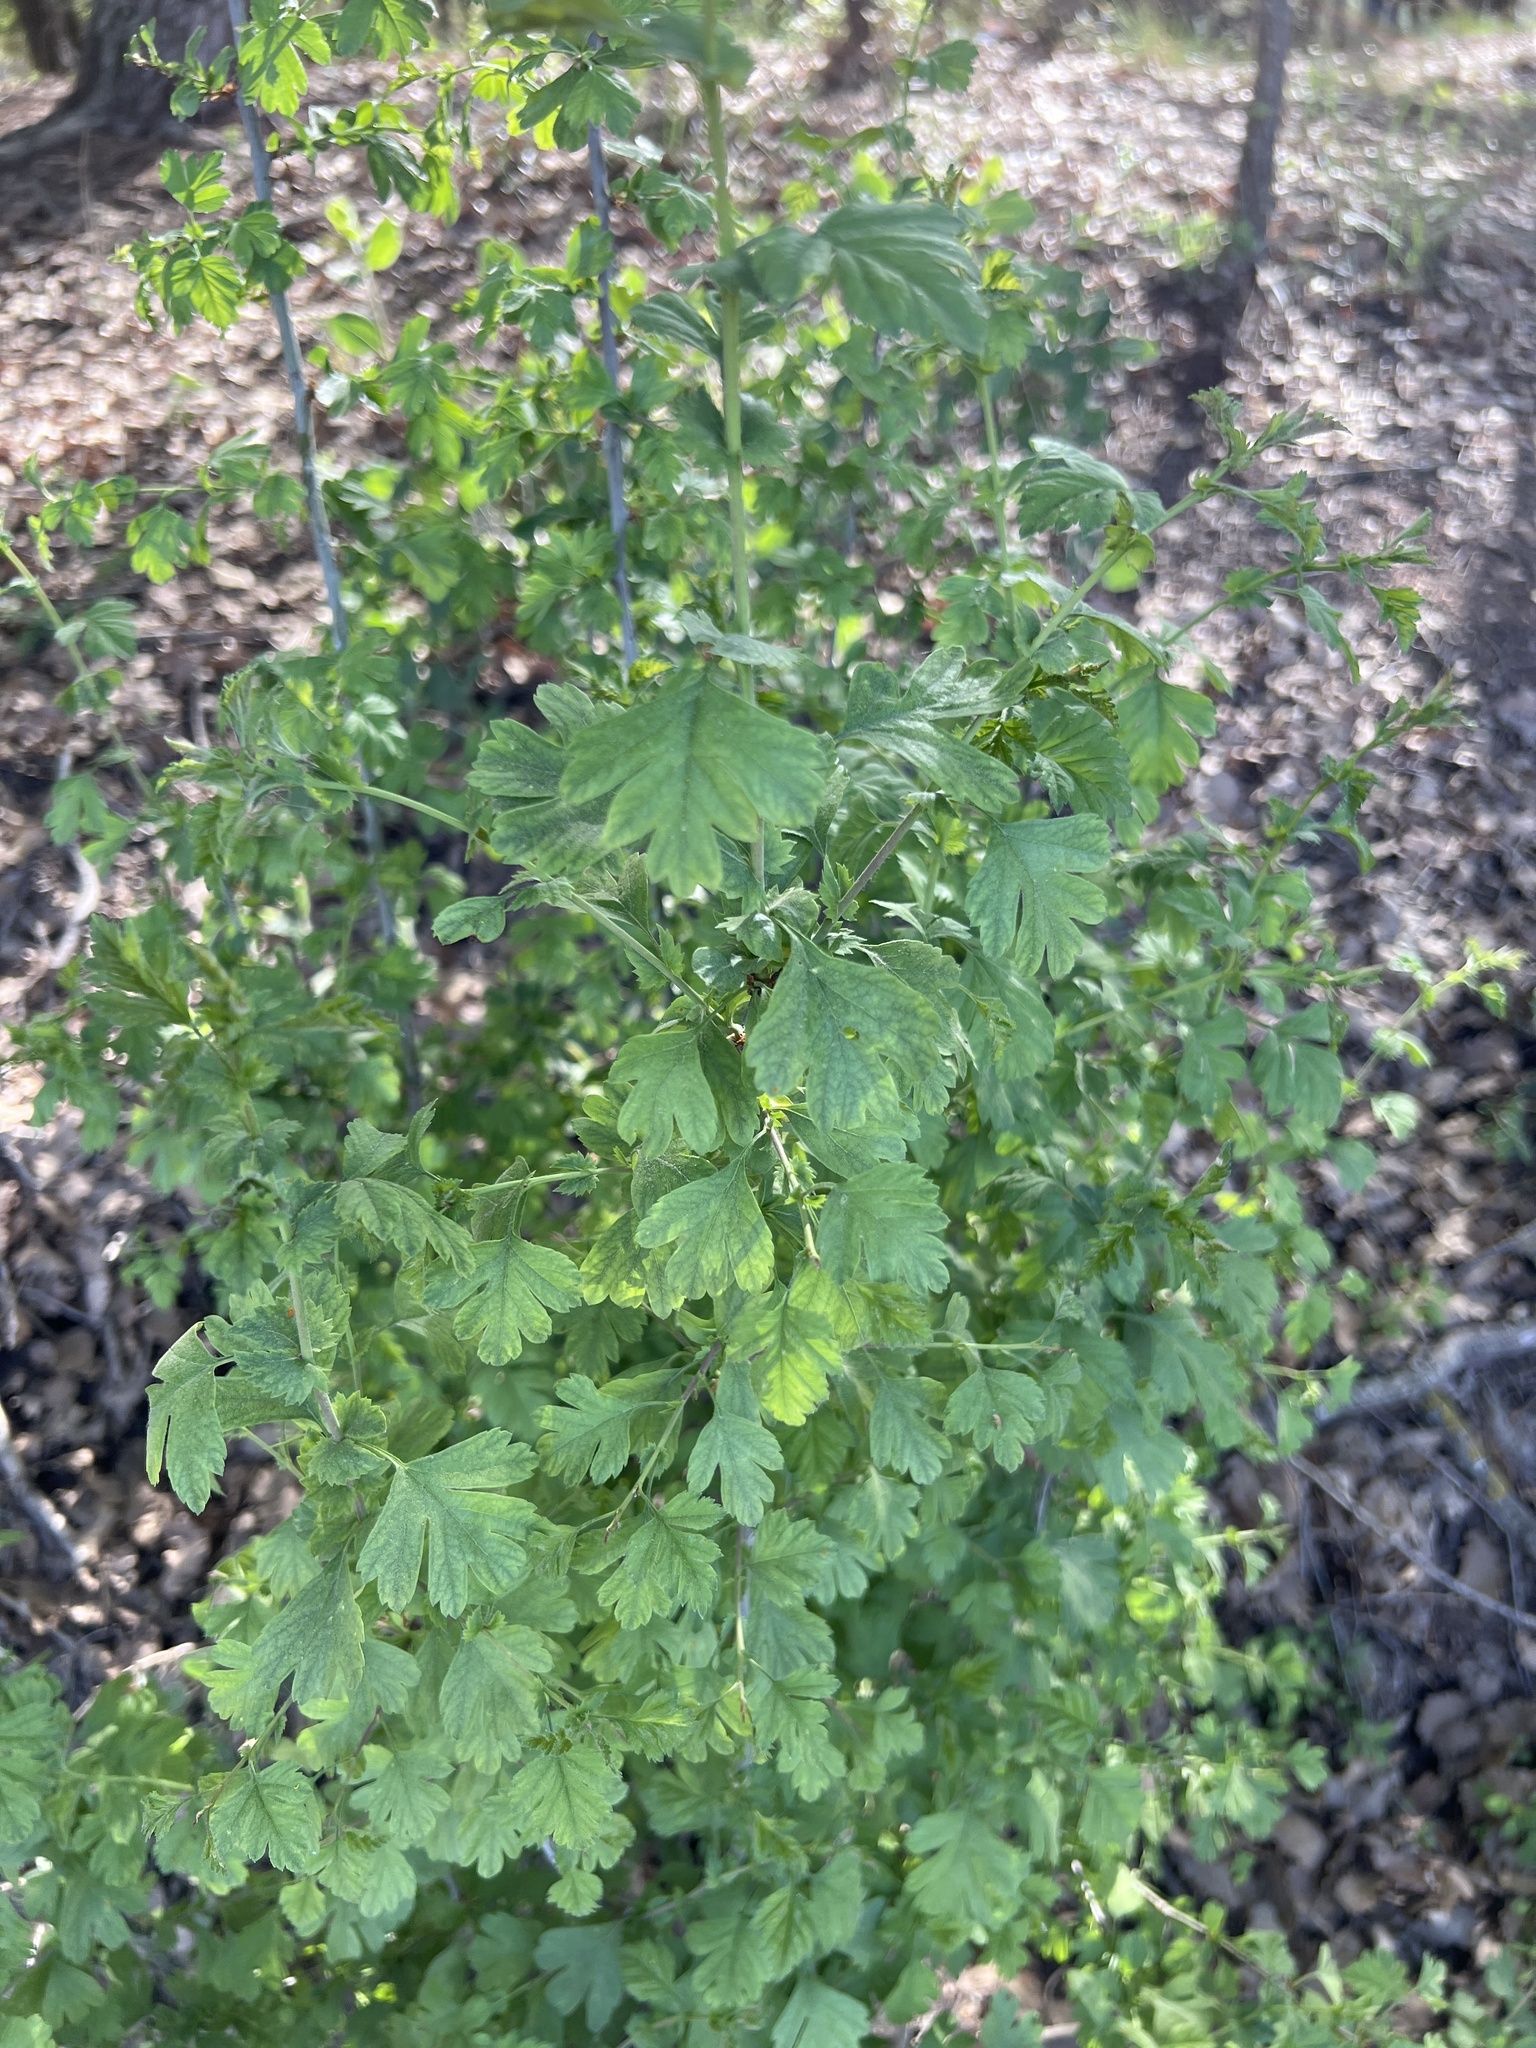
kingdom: Plantae
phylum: Tracheophyta
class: Magnoliopsida
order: Rosales
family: Rosaceae
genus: Crataegus
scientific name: Crataegus monogyna
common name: Hawthorn
